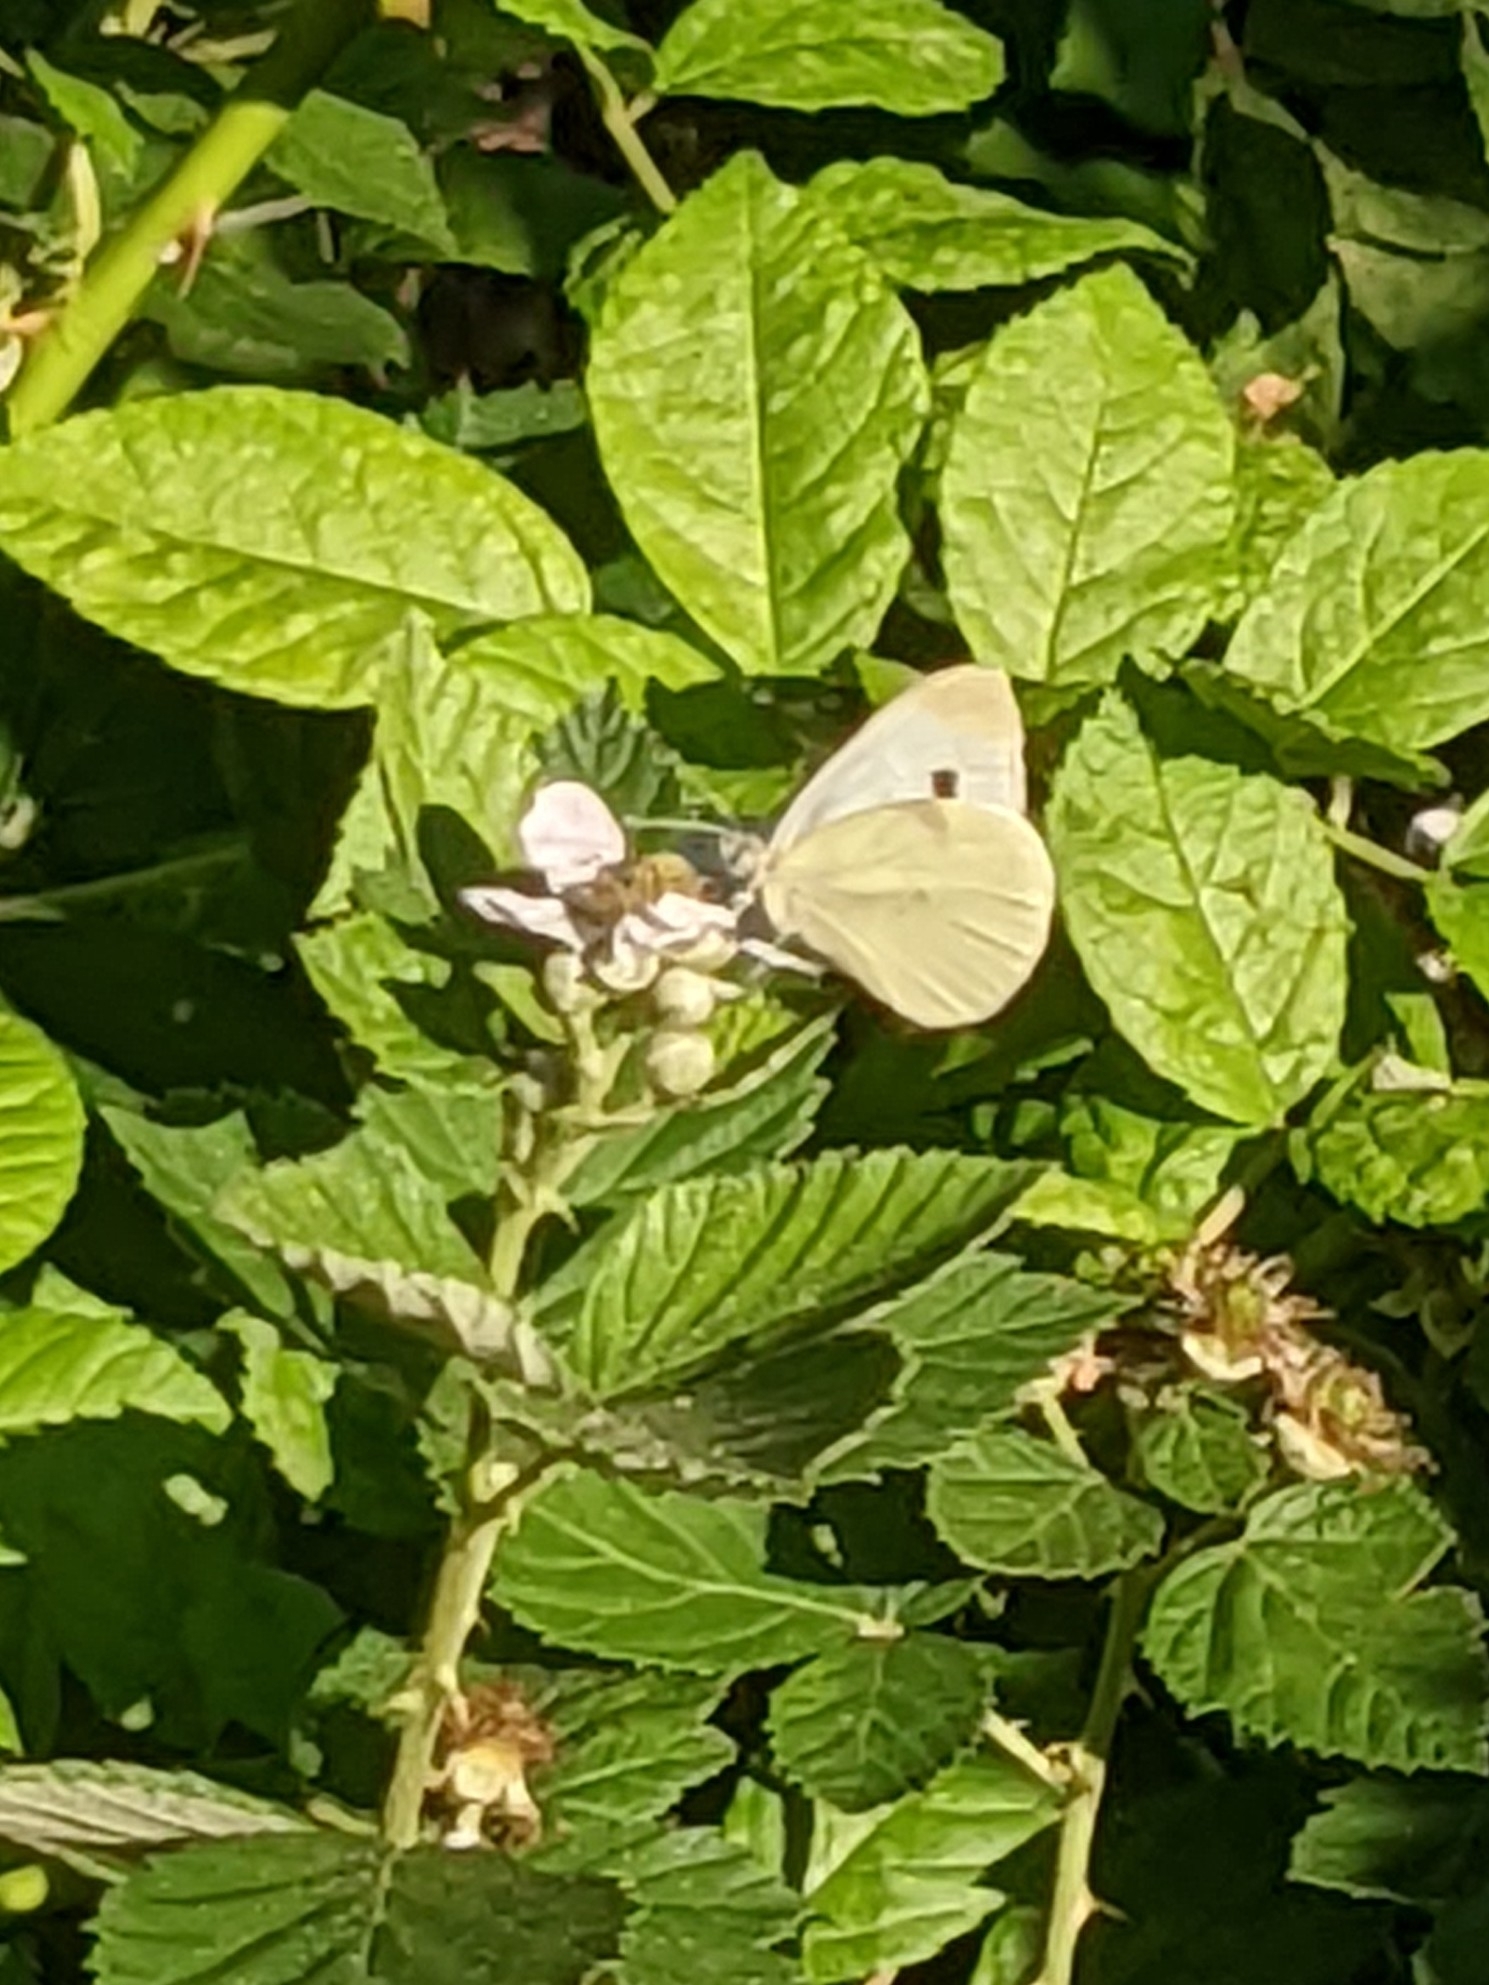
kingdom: Animalia
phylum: Arthropoda
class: Insecta
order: Lepidoptera
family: Pieridae
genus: Pieris
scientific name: Pieris rapae
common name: Small white
